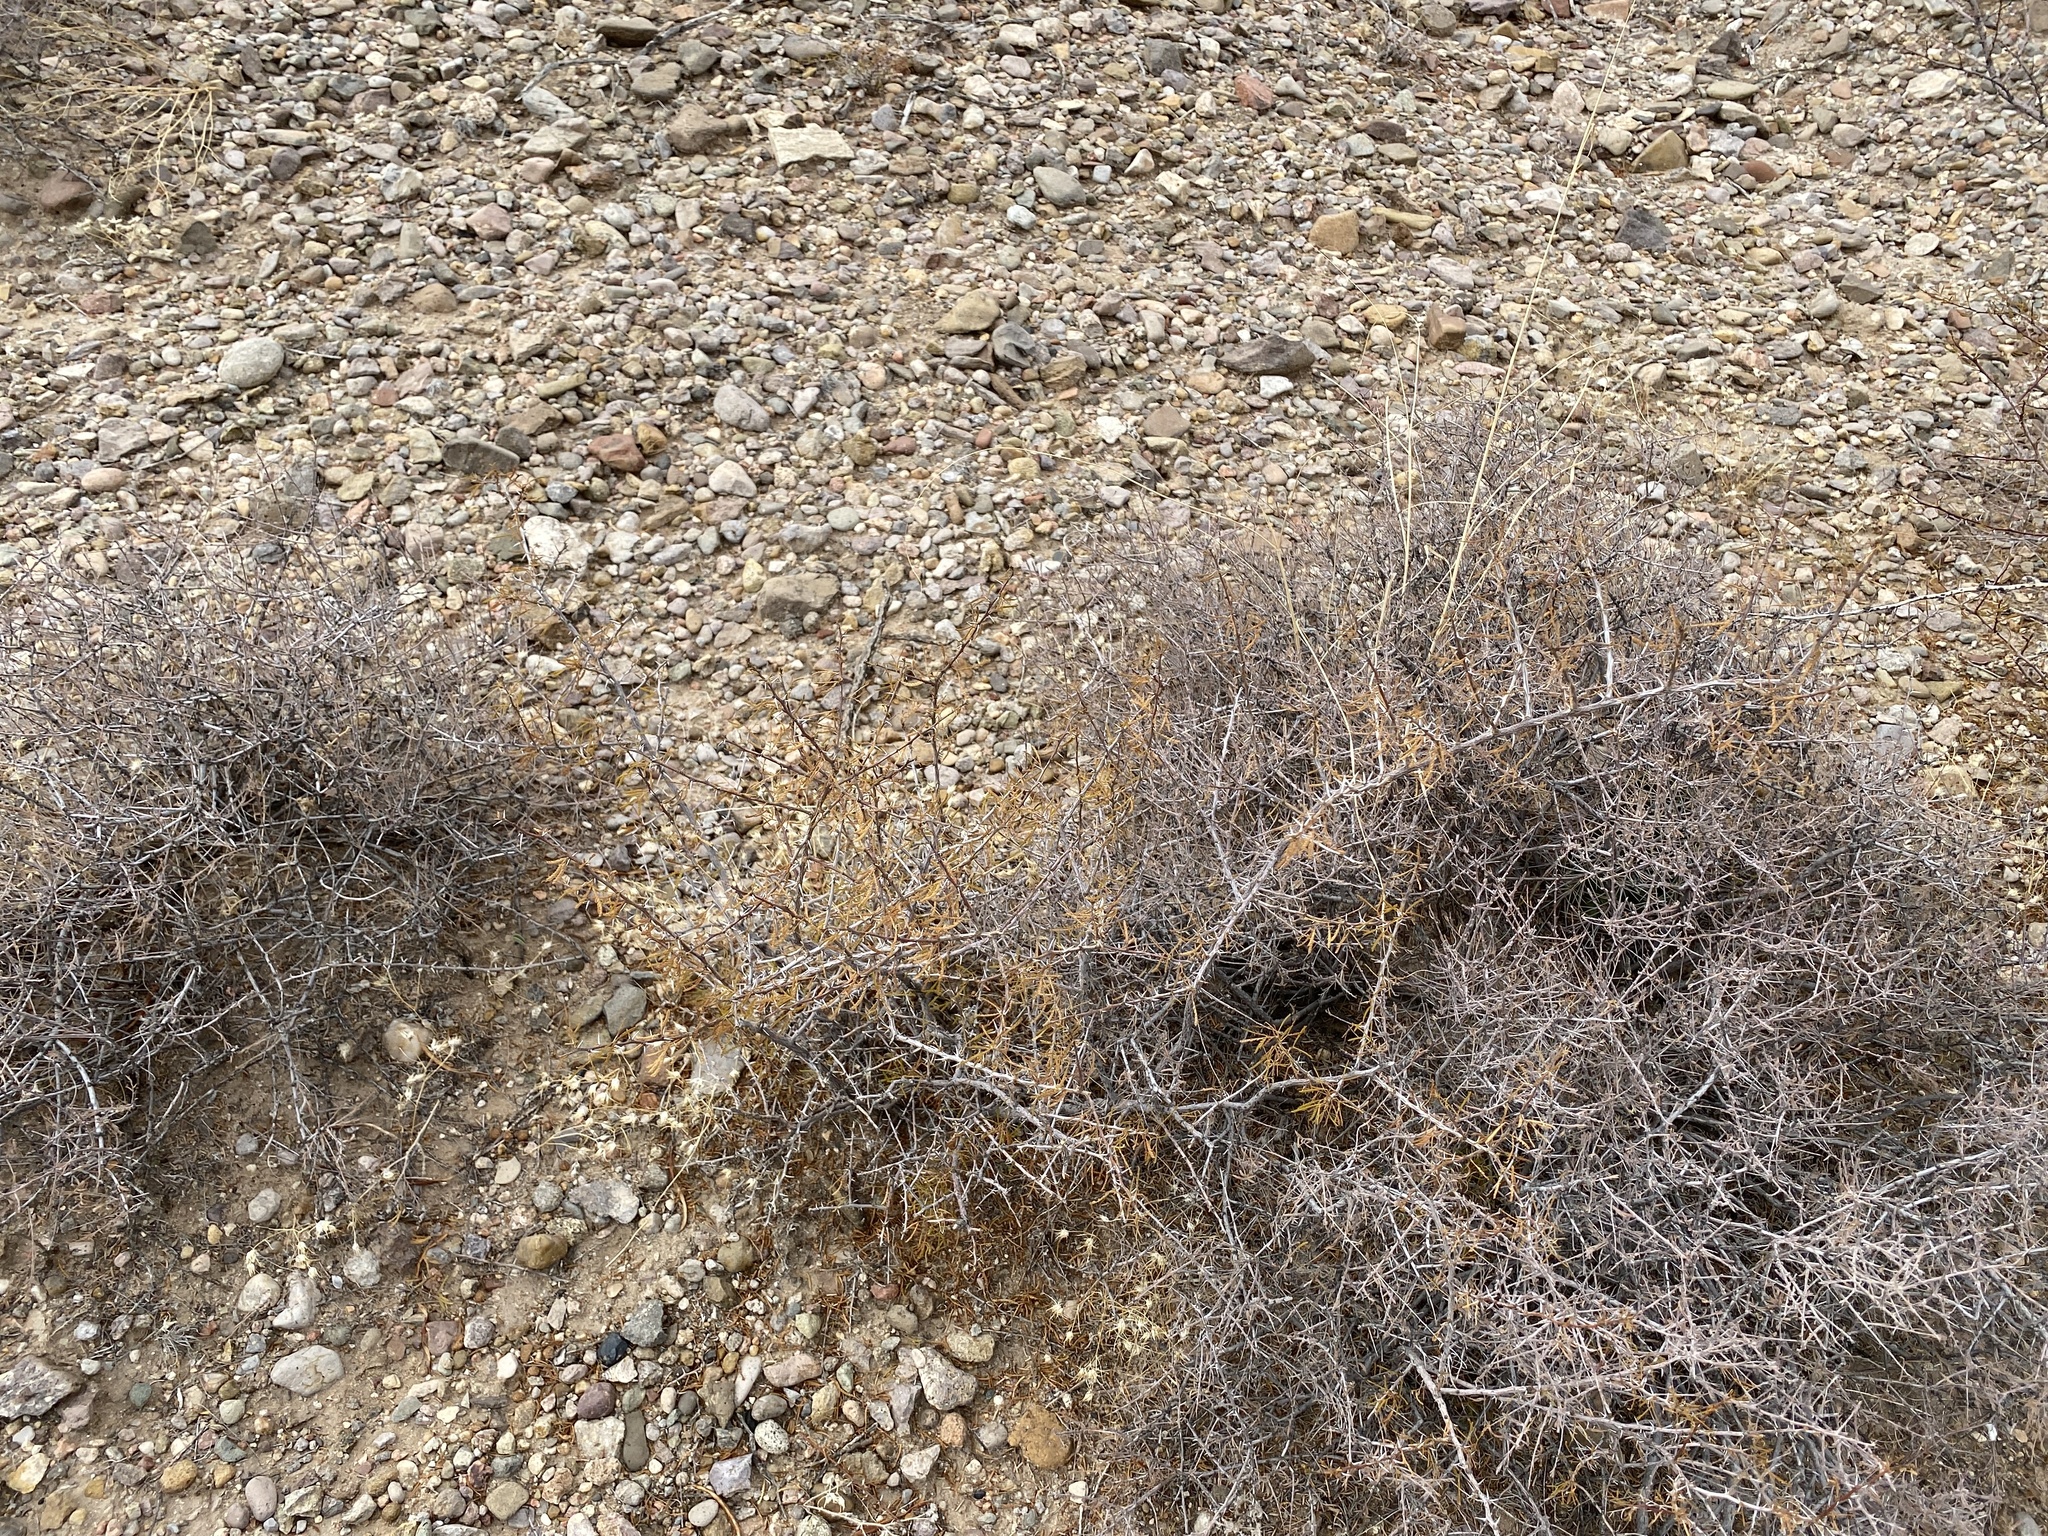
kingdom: Plantae
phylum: Tracheophyta
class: Magnoliopsida
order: Fabales
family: Fabaceae
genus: Vachellia
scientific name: Vachellia constricta
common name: Mescat acacia
